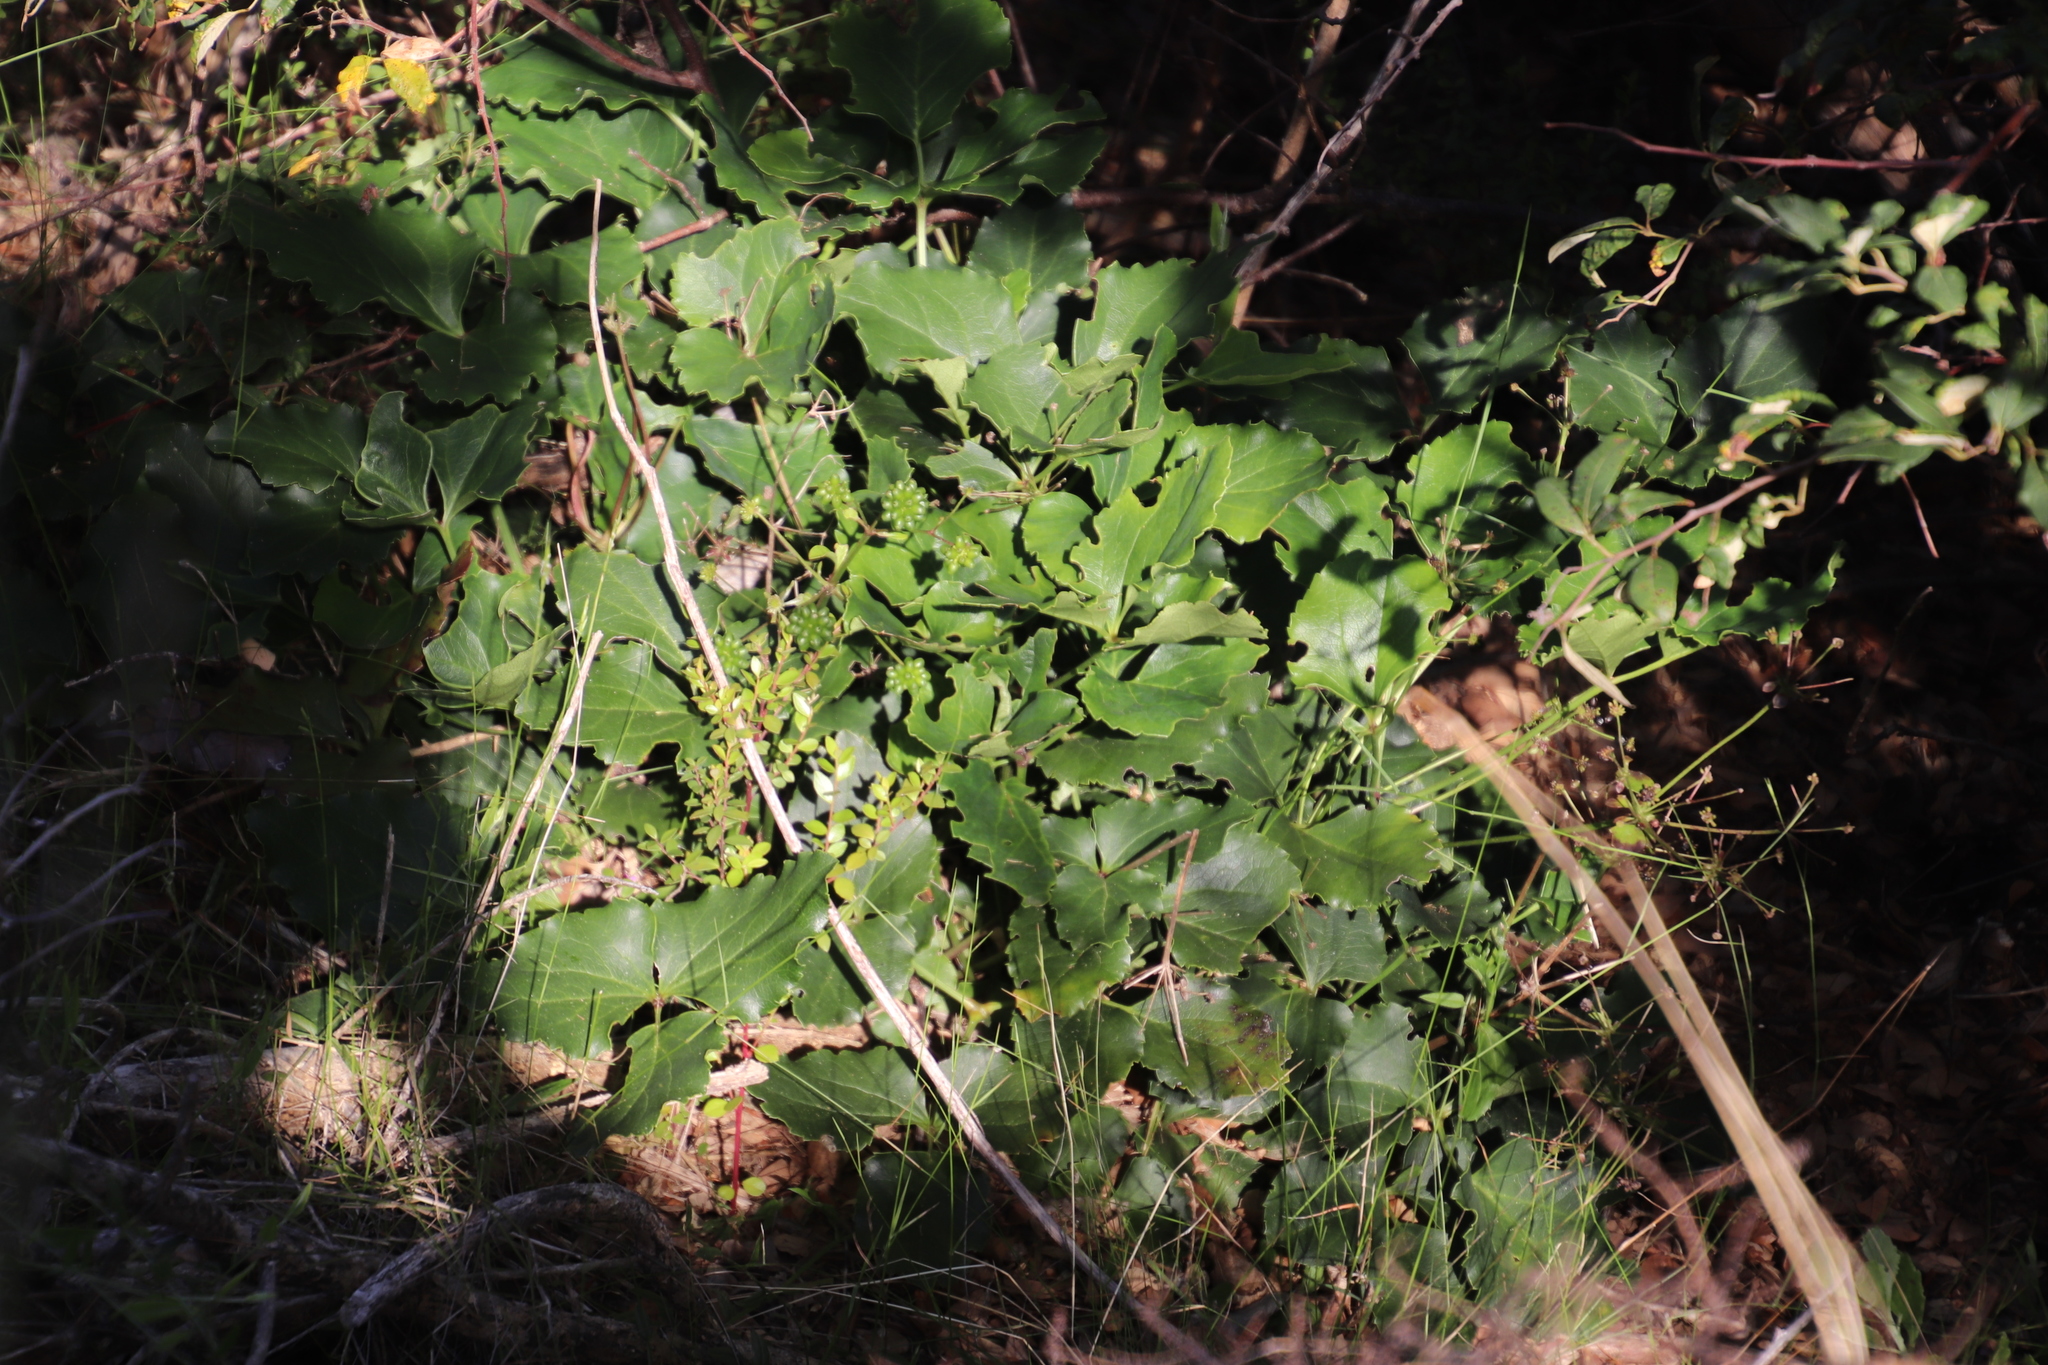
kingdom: Plantae
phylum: Tracheophyta
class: Magnoliopsida
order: Ranunculales
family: Ranunculaceae
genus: Knowltonia
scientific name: Knowltonia vesicatoria
